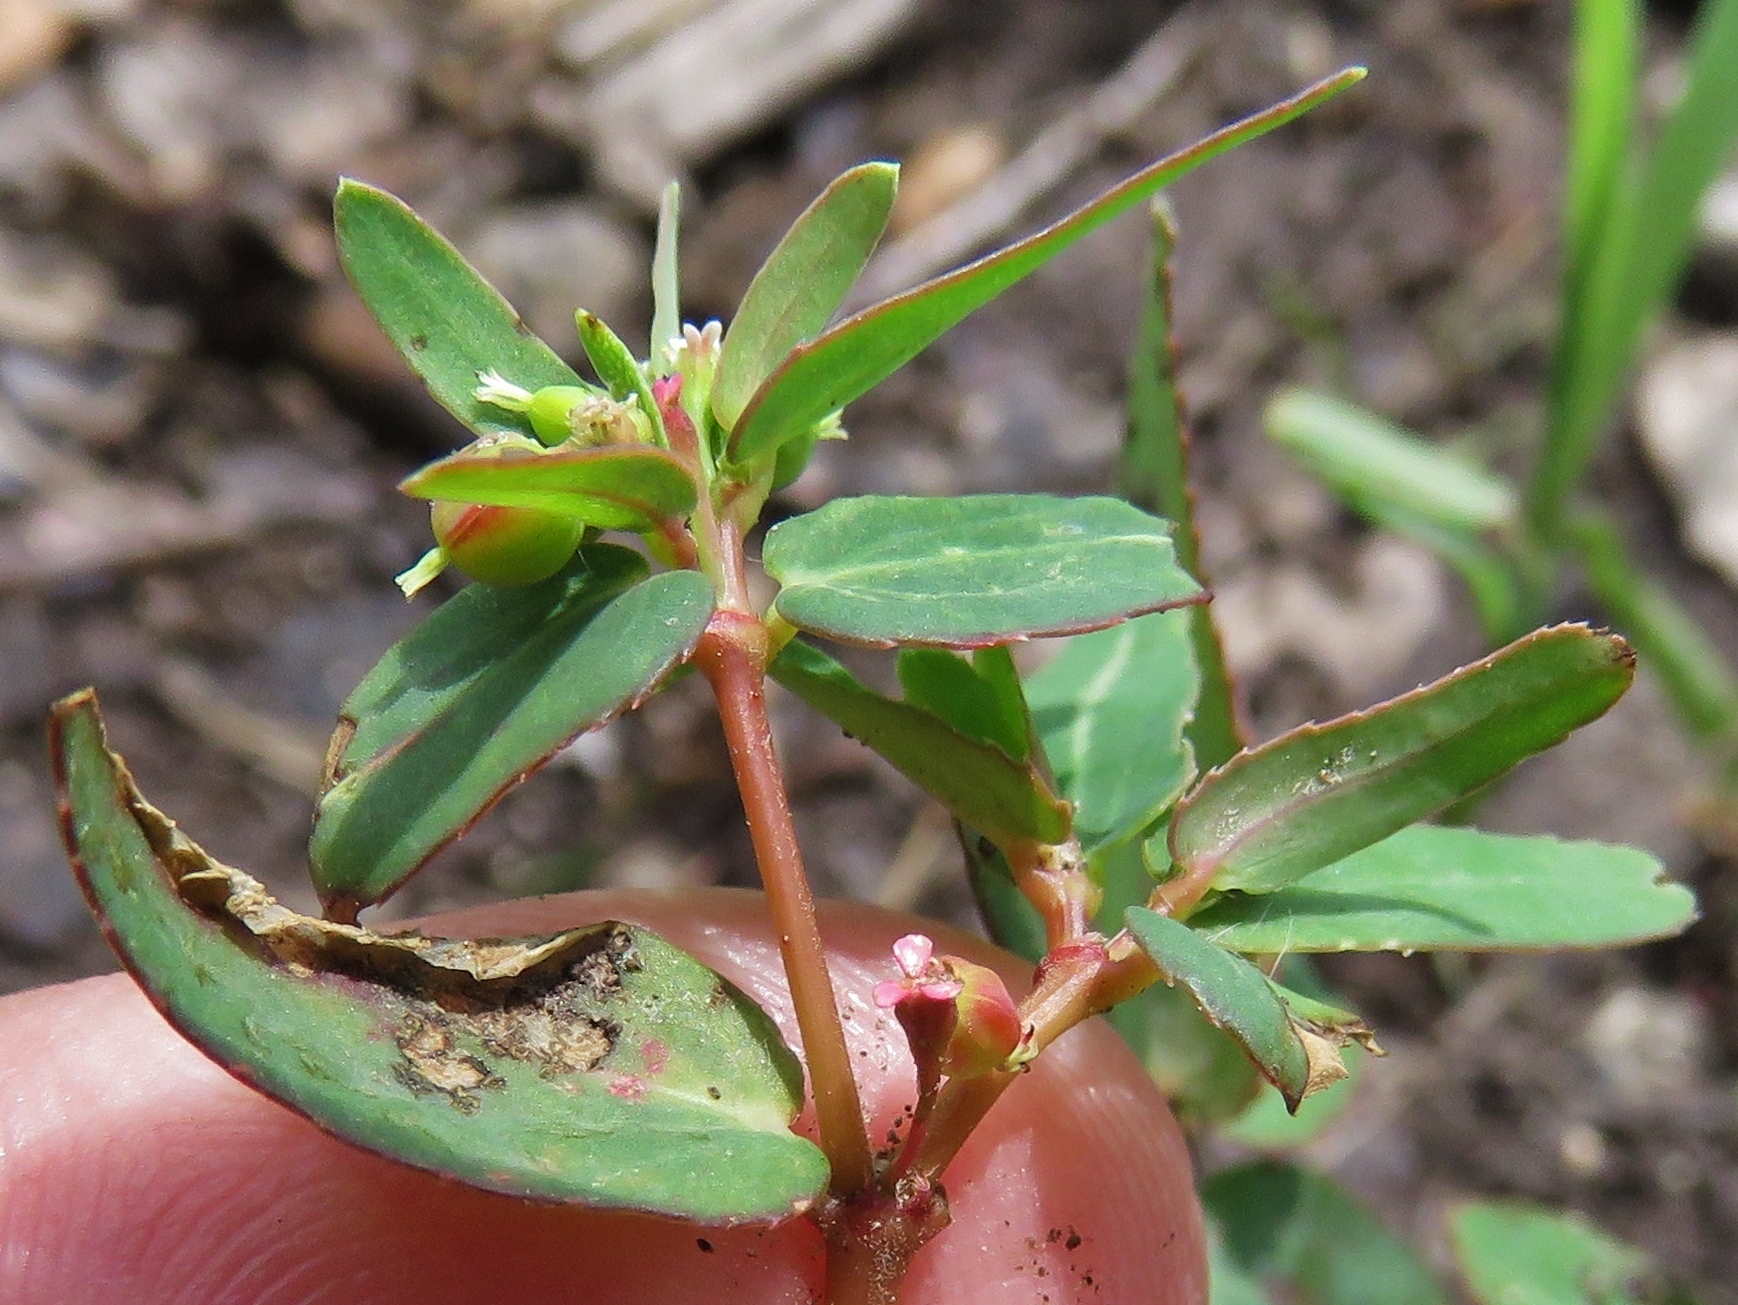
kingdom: Plantae
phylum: Tracheophyta
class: Magnoliopsida
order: Malpighiales
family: Euphorbiaceae
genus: Euphorbia
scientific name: Euphorbia nutans
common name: Eyebane
